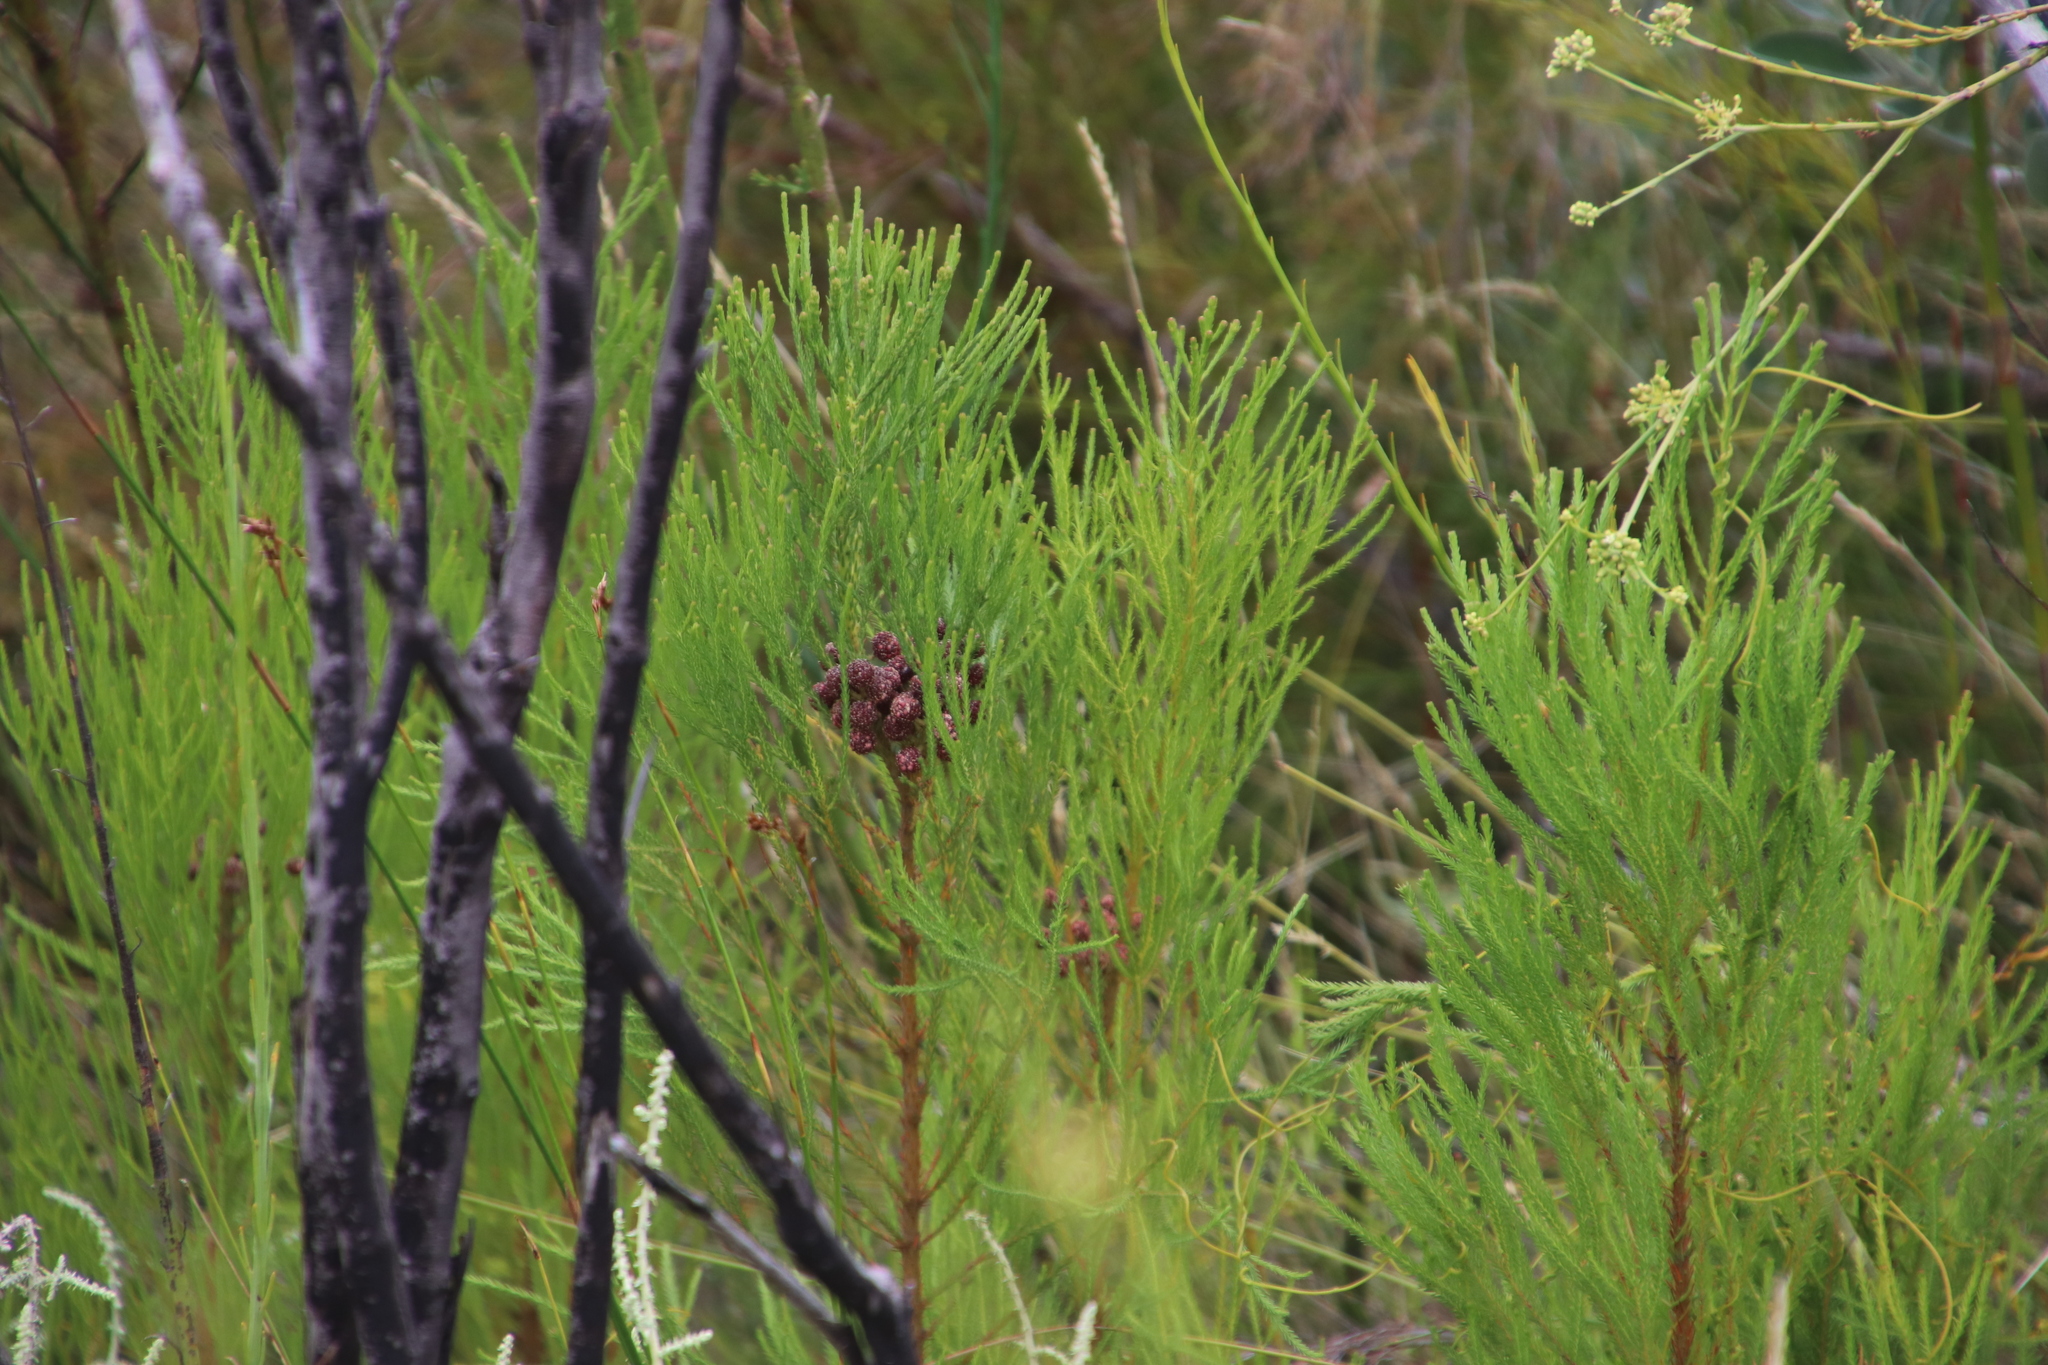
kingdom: Plantae
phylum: Tracheophyta
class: Magnoliopsida
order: Bruniales
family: Bruniaceae
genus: Berzelia
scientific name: Berzelia lanuginosa
